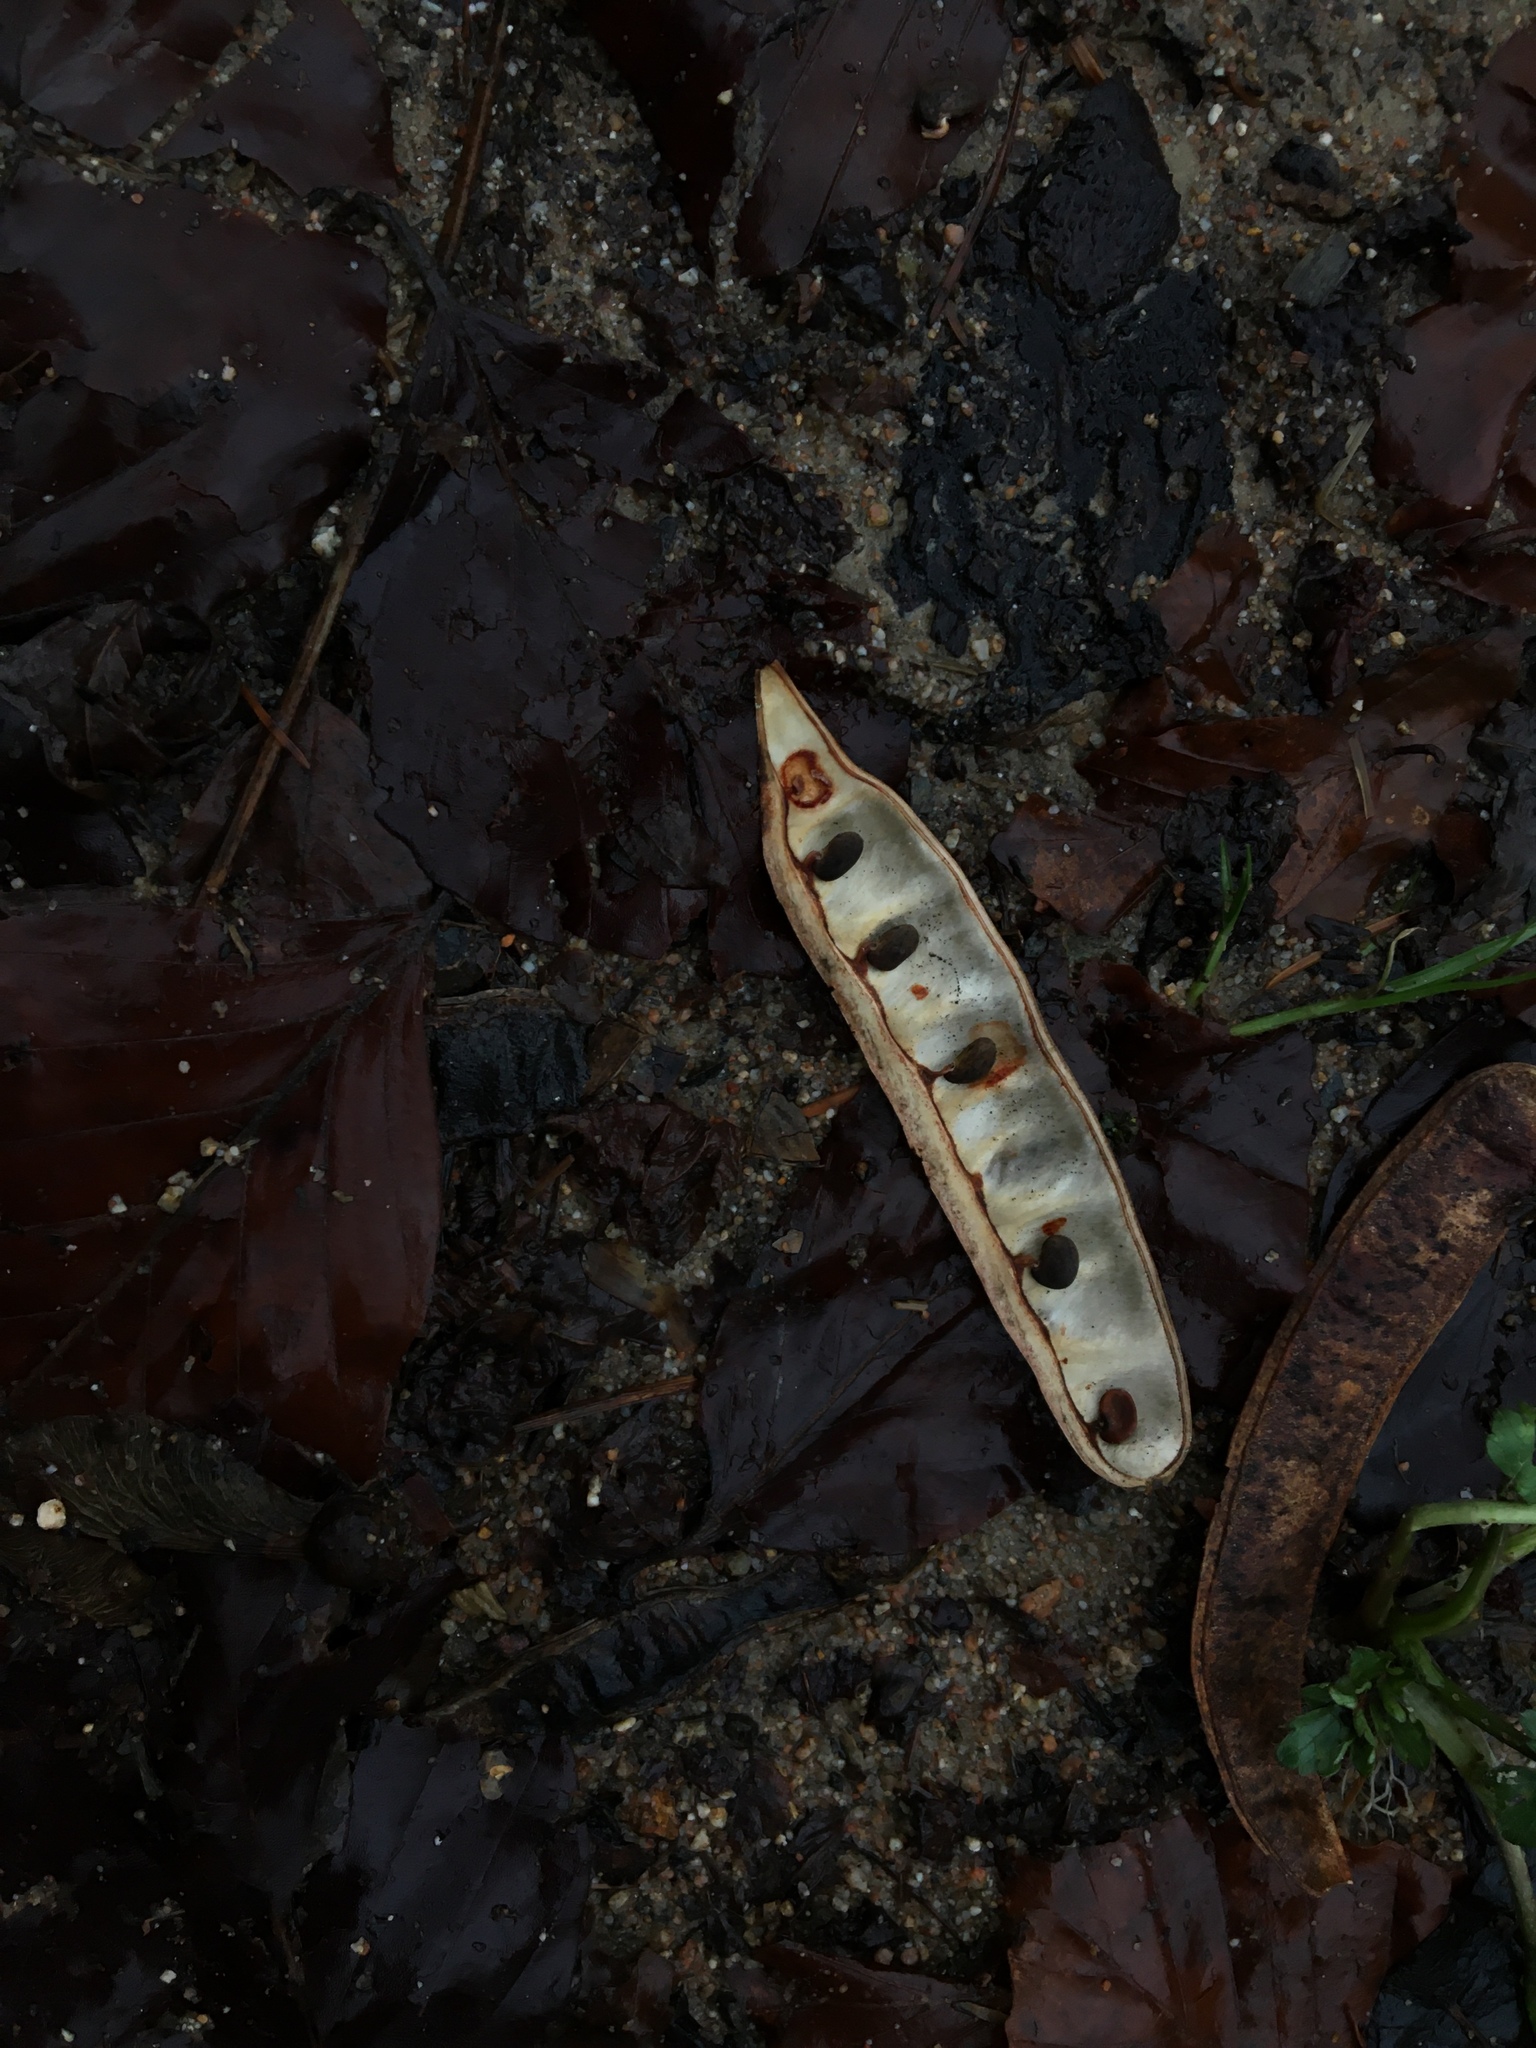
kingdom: Plantae
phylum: Tracheophyta
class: Magnoliopsida
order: Fabales
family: Fabaceae
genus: Robinia
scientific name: Robinia pseudoacacia
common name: Black locust
